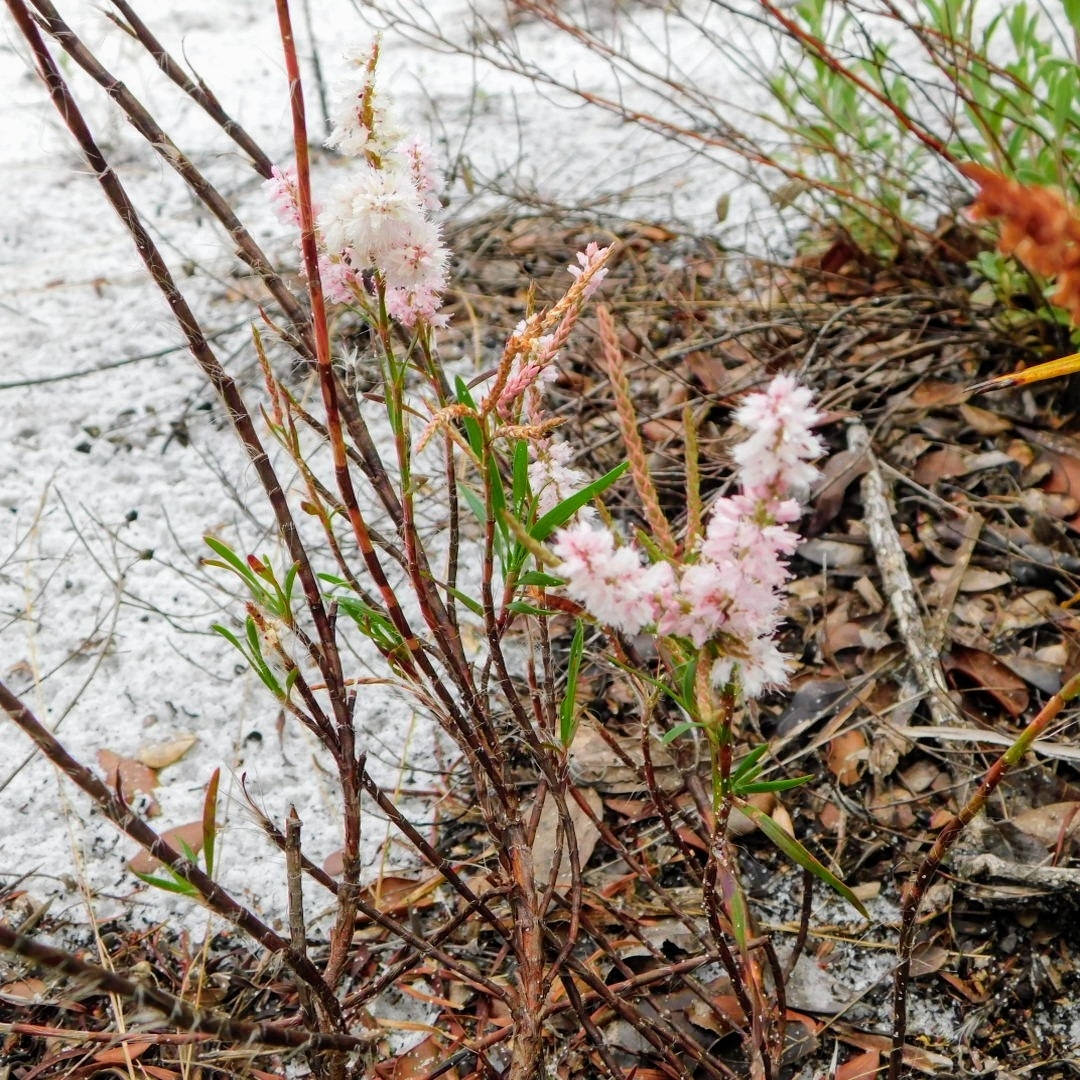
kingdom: Plantae
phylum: Tracheophyta
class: Magnoliopsida
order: Caryophyllales
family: Polygonaceae
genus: Polygonella
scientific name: Polygonella robusta
